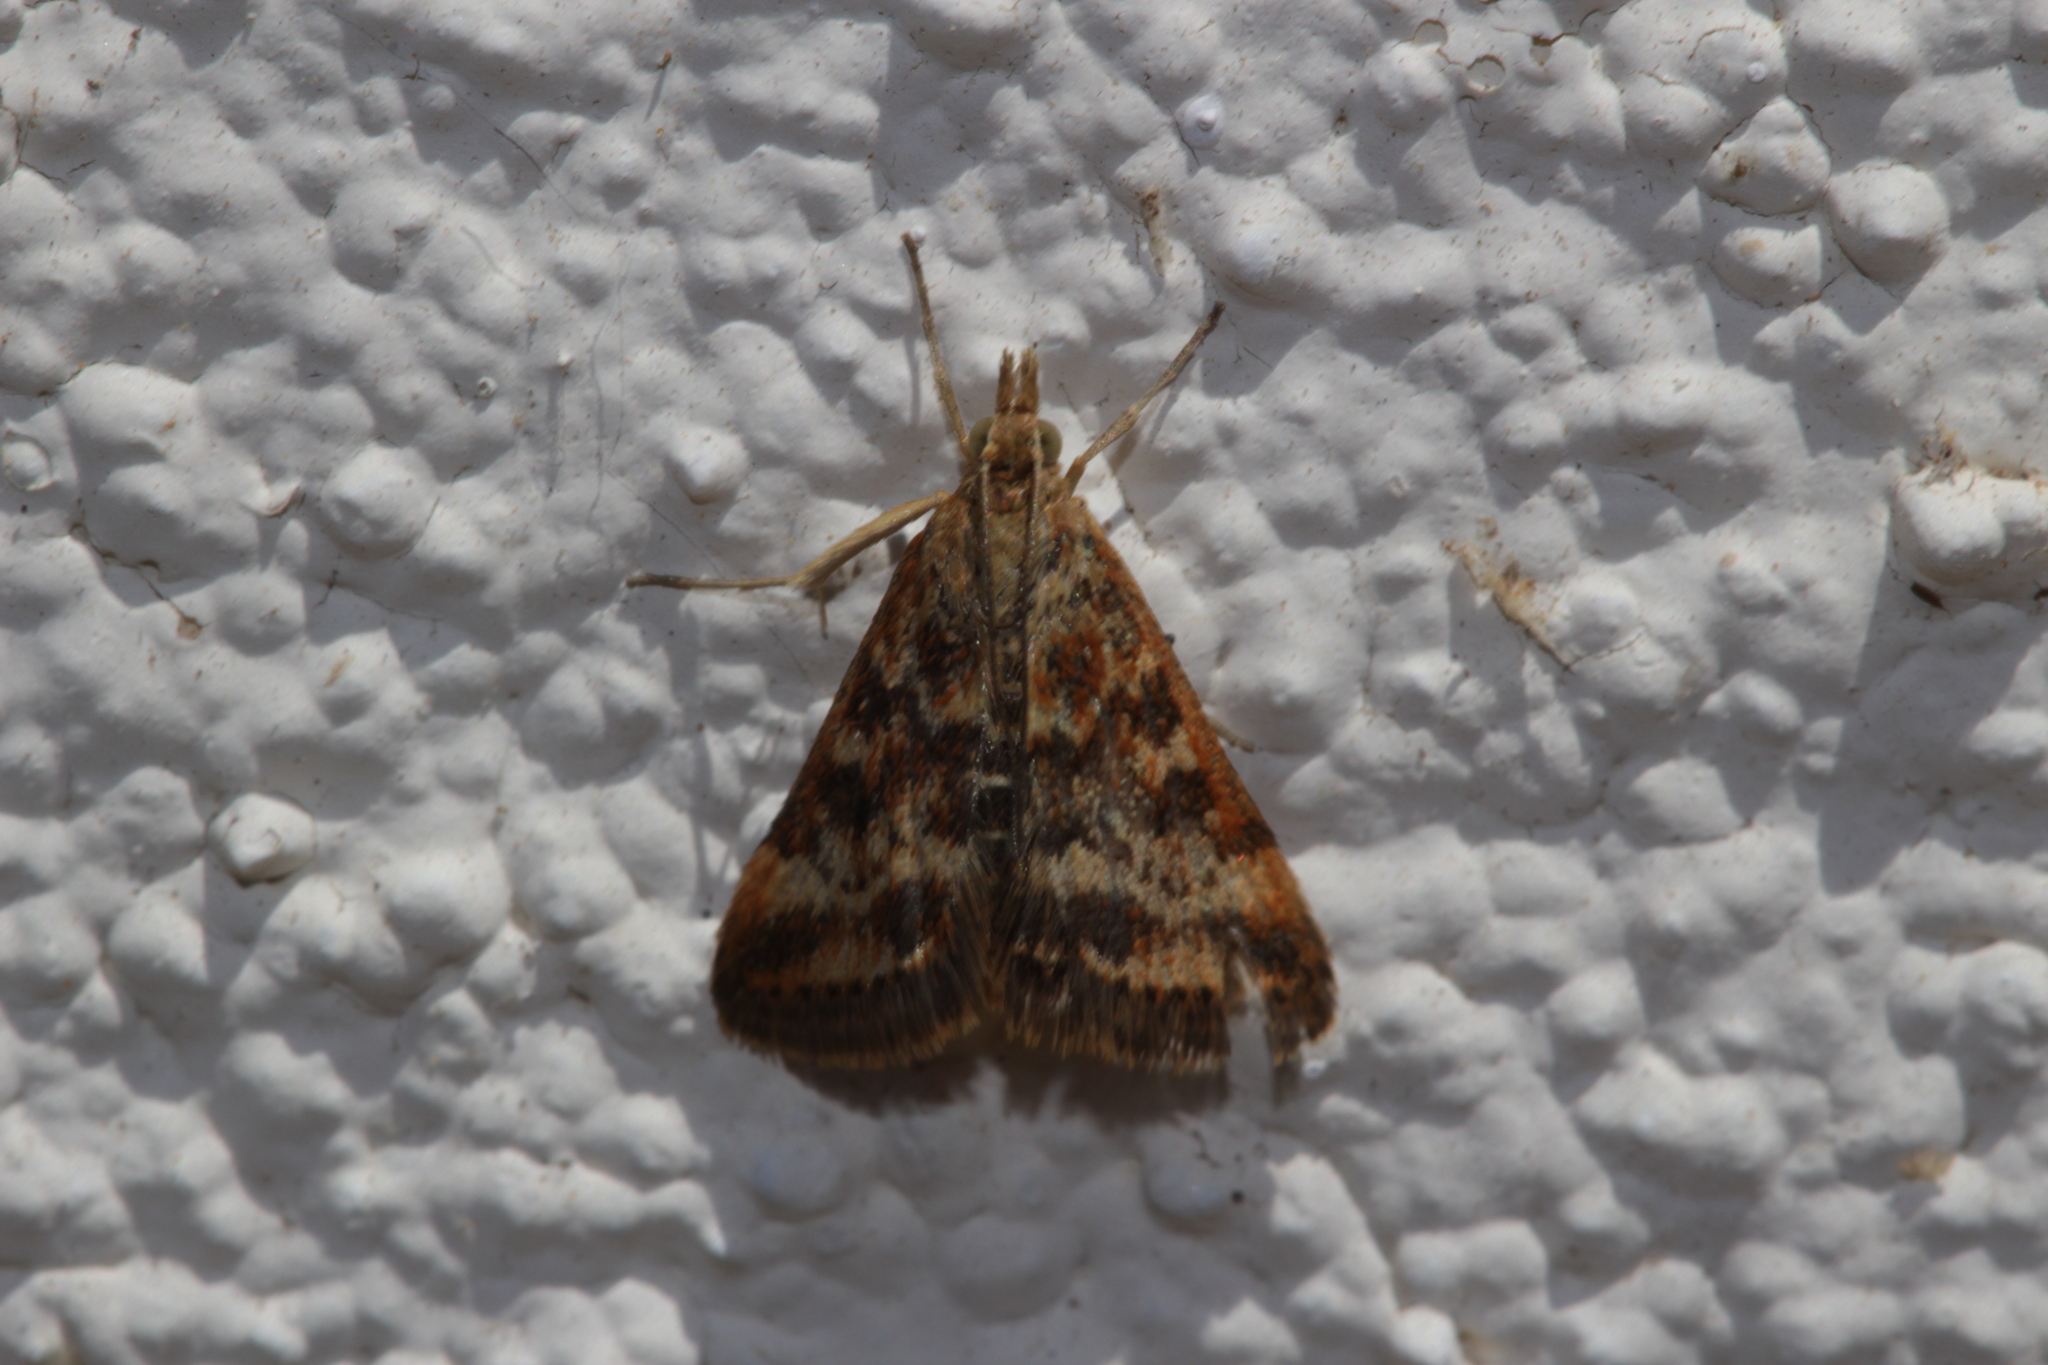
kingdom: Animalia
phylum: Arthropoda
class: Insecta
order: Lepidoptera
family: Crambidae
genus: Pyrausta
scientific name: Pyrausta despicata
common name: Straw-barred pearl
